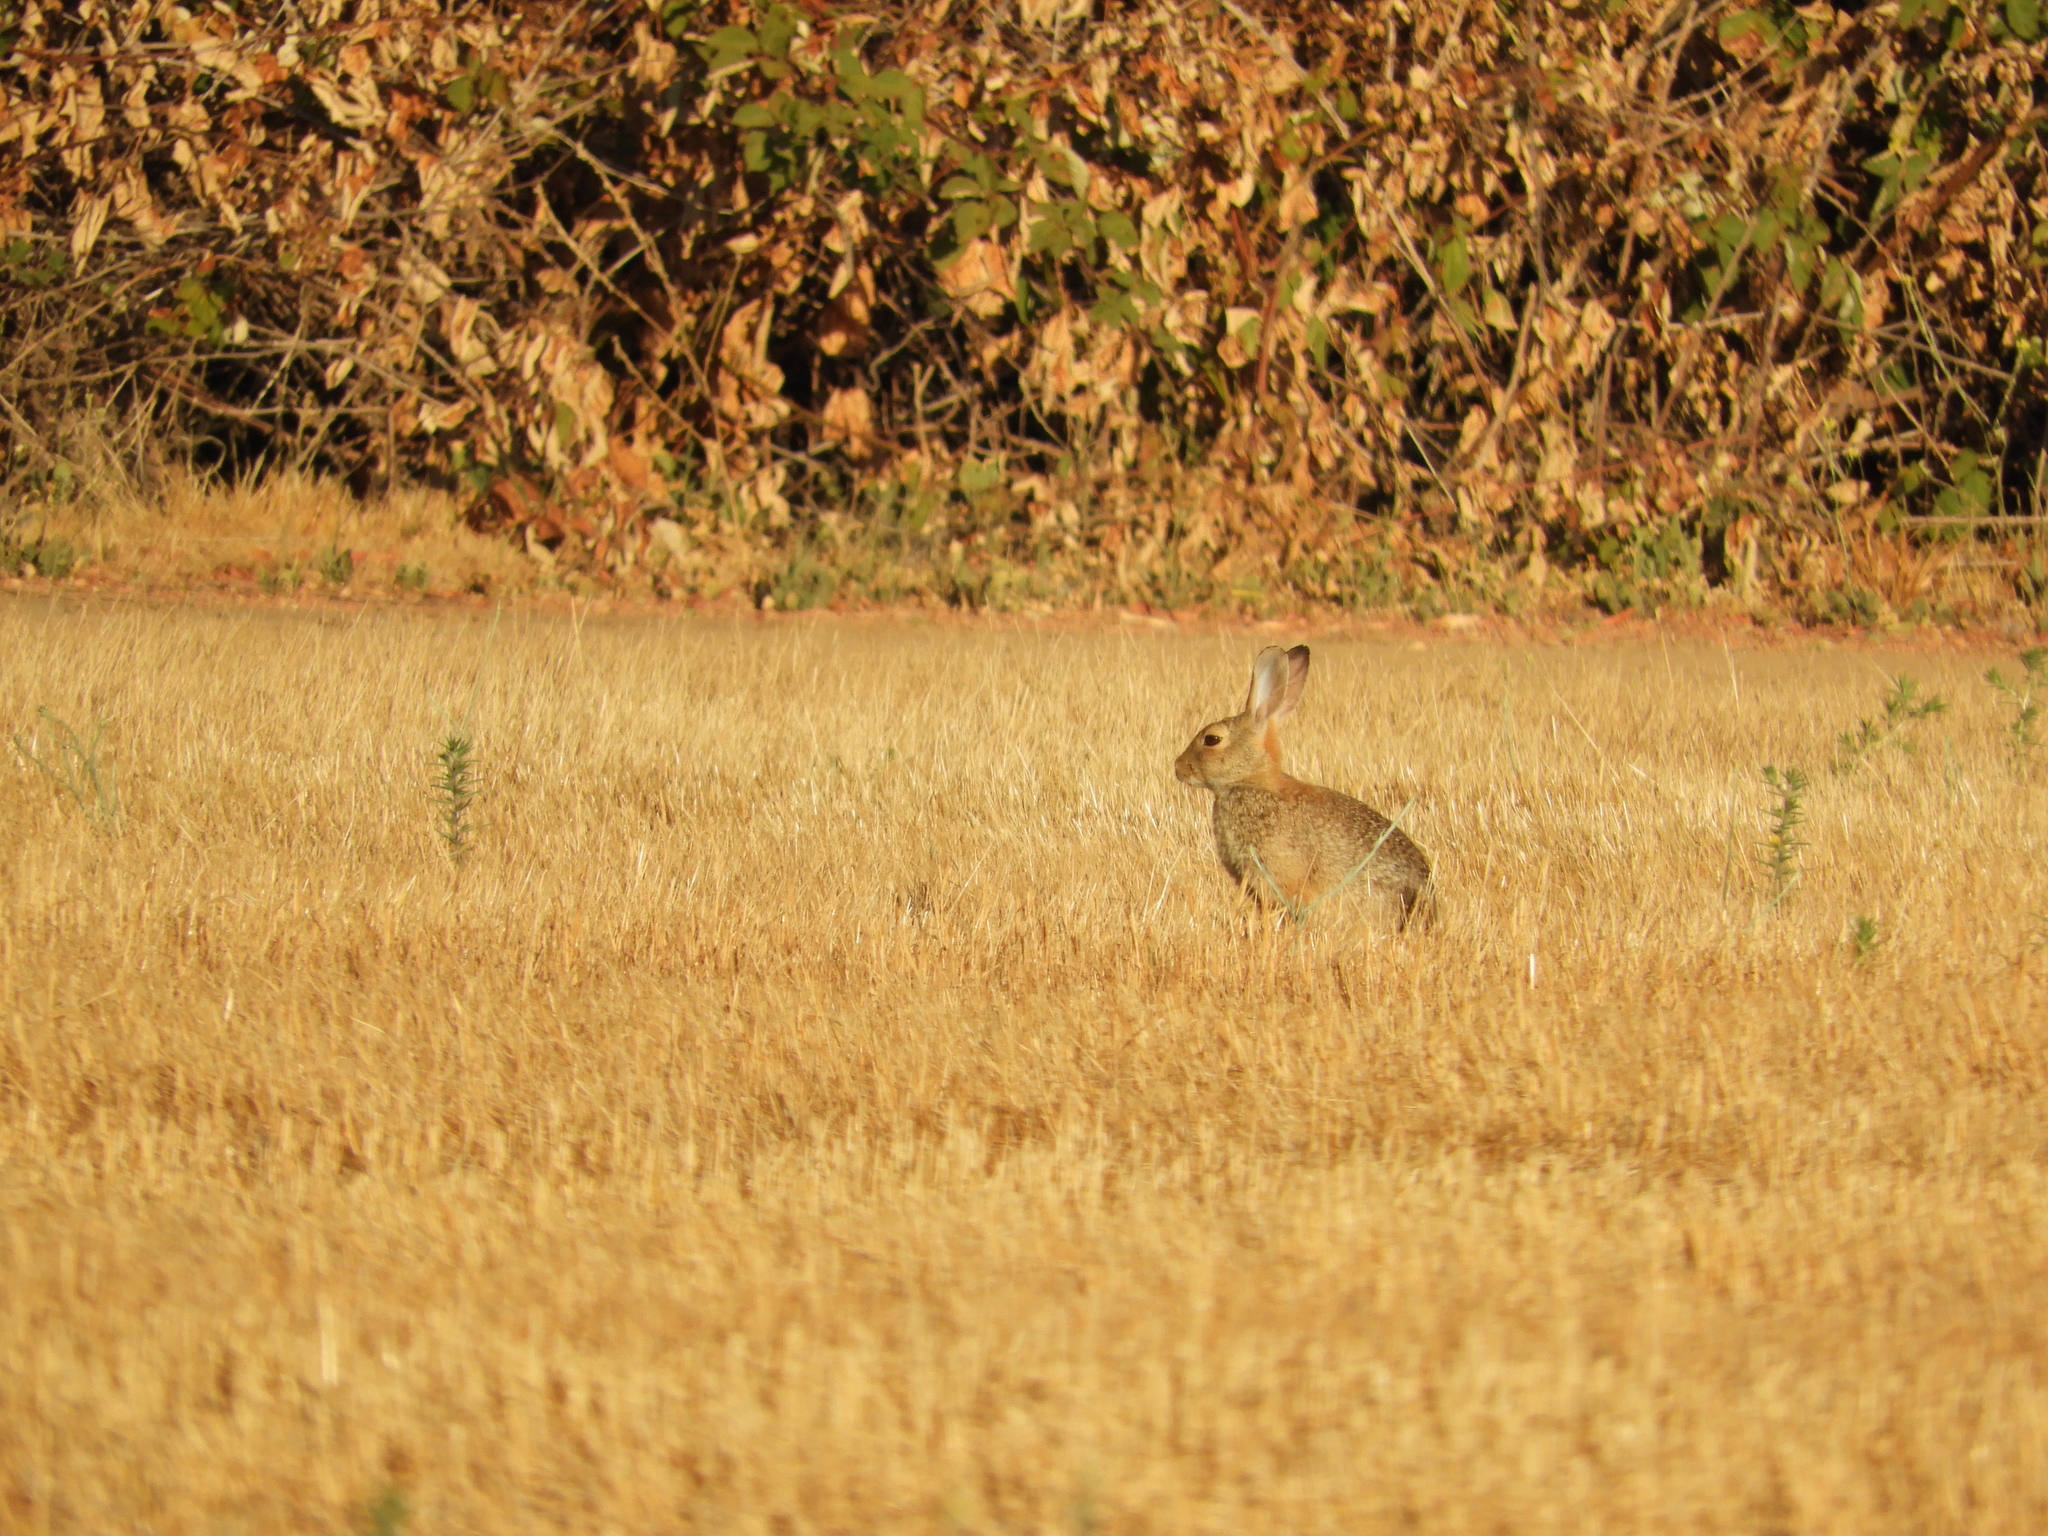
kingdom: Animalia
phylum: Chordata
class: Mammalia
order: Lagomorpha
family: Leporidae
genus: Sylvilagus
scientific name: Sylvilagus audubonii
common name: Desert cottontail
